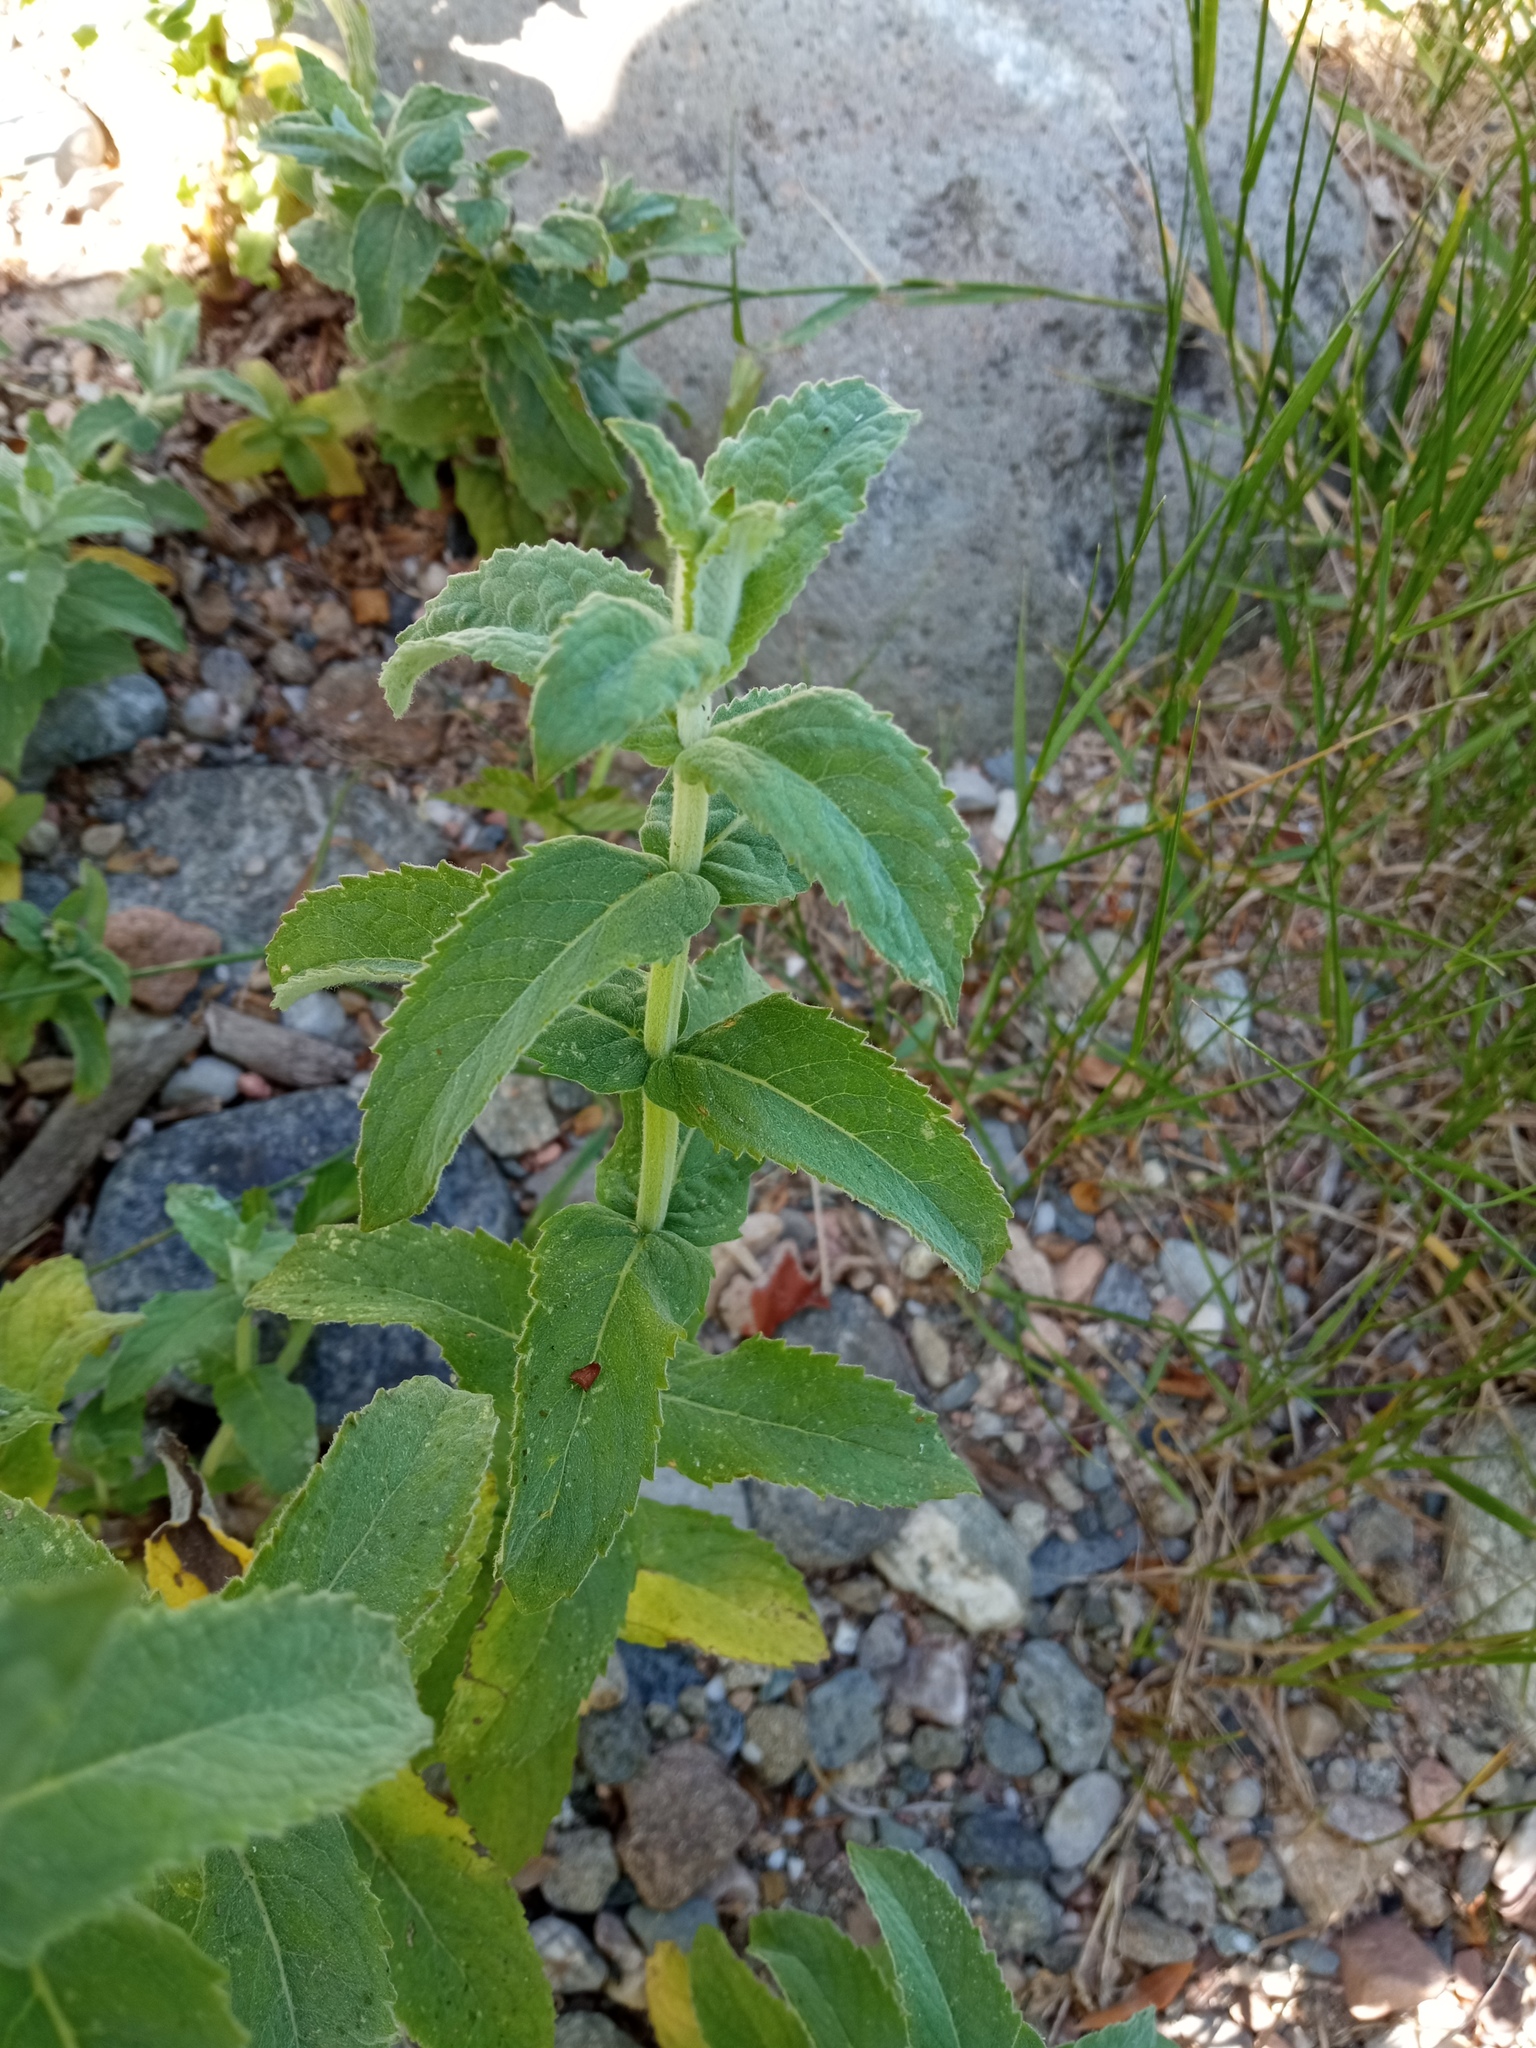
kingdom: Plantae
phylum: Tracheophyta
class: Magnoliopsida
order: Lamiales
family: Lamiaceae
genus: Mentha
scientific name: Mentha longifolia
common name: Horse mint
